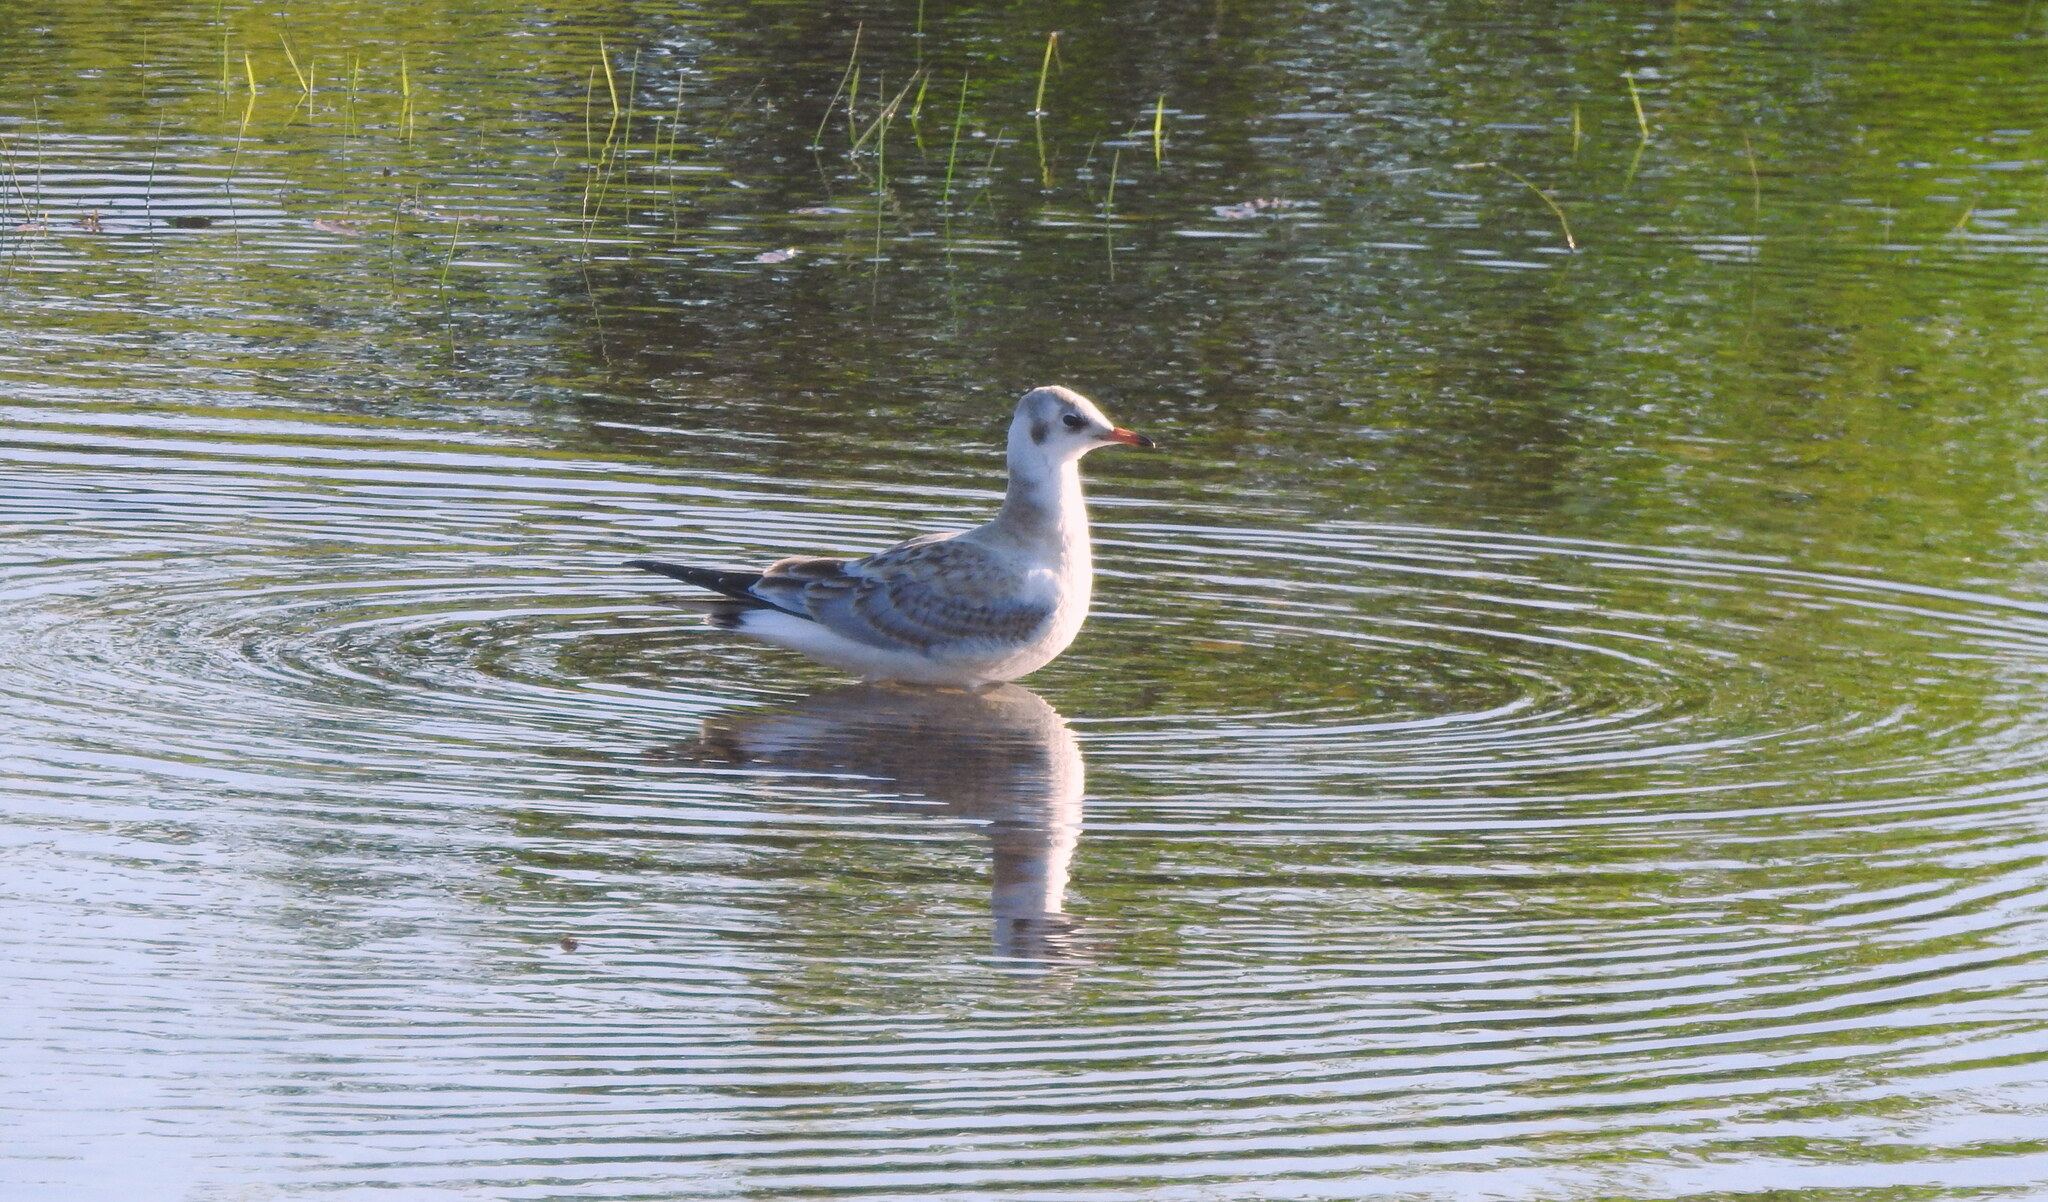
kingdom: Animalia
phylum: Chordata
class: Aves
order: Charadriiformes
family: Laridae
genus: Chroicocephalus
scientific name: Chroicocephalus ridibundus
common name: Black-headed gull
